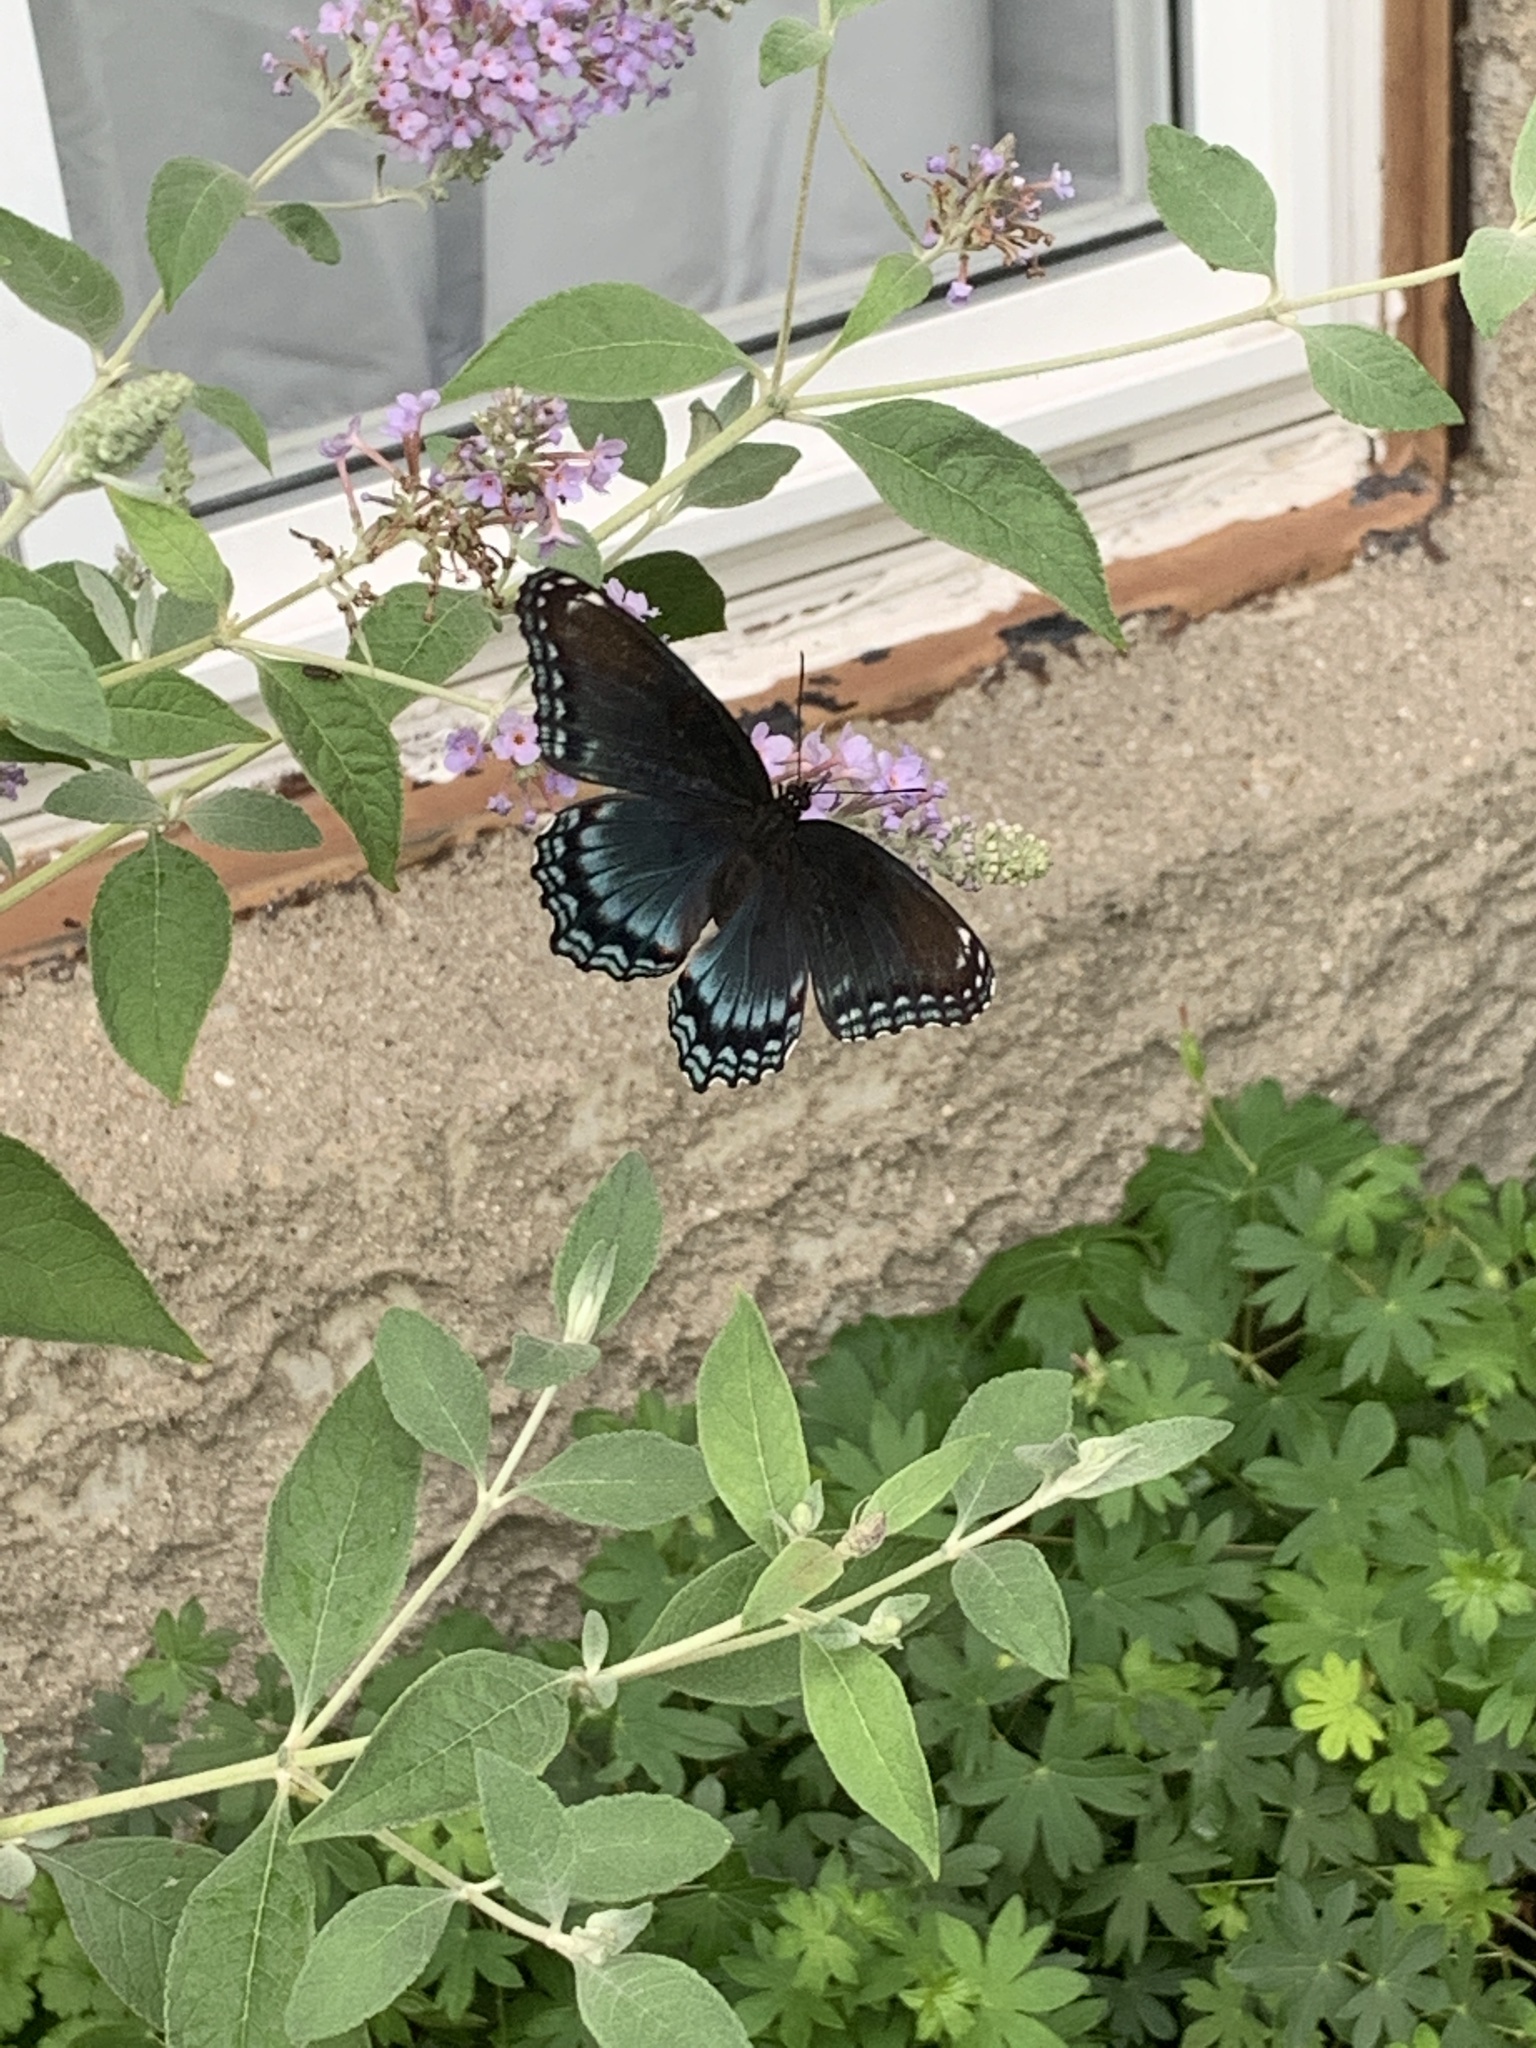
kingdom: Animalia
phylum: Arthropoda
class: Insecta
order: Lepidoptera
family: Nymphalidae
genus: Limenitis
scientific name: Limenitis astyanax
